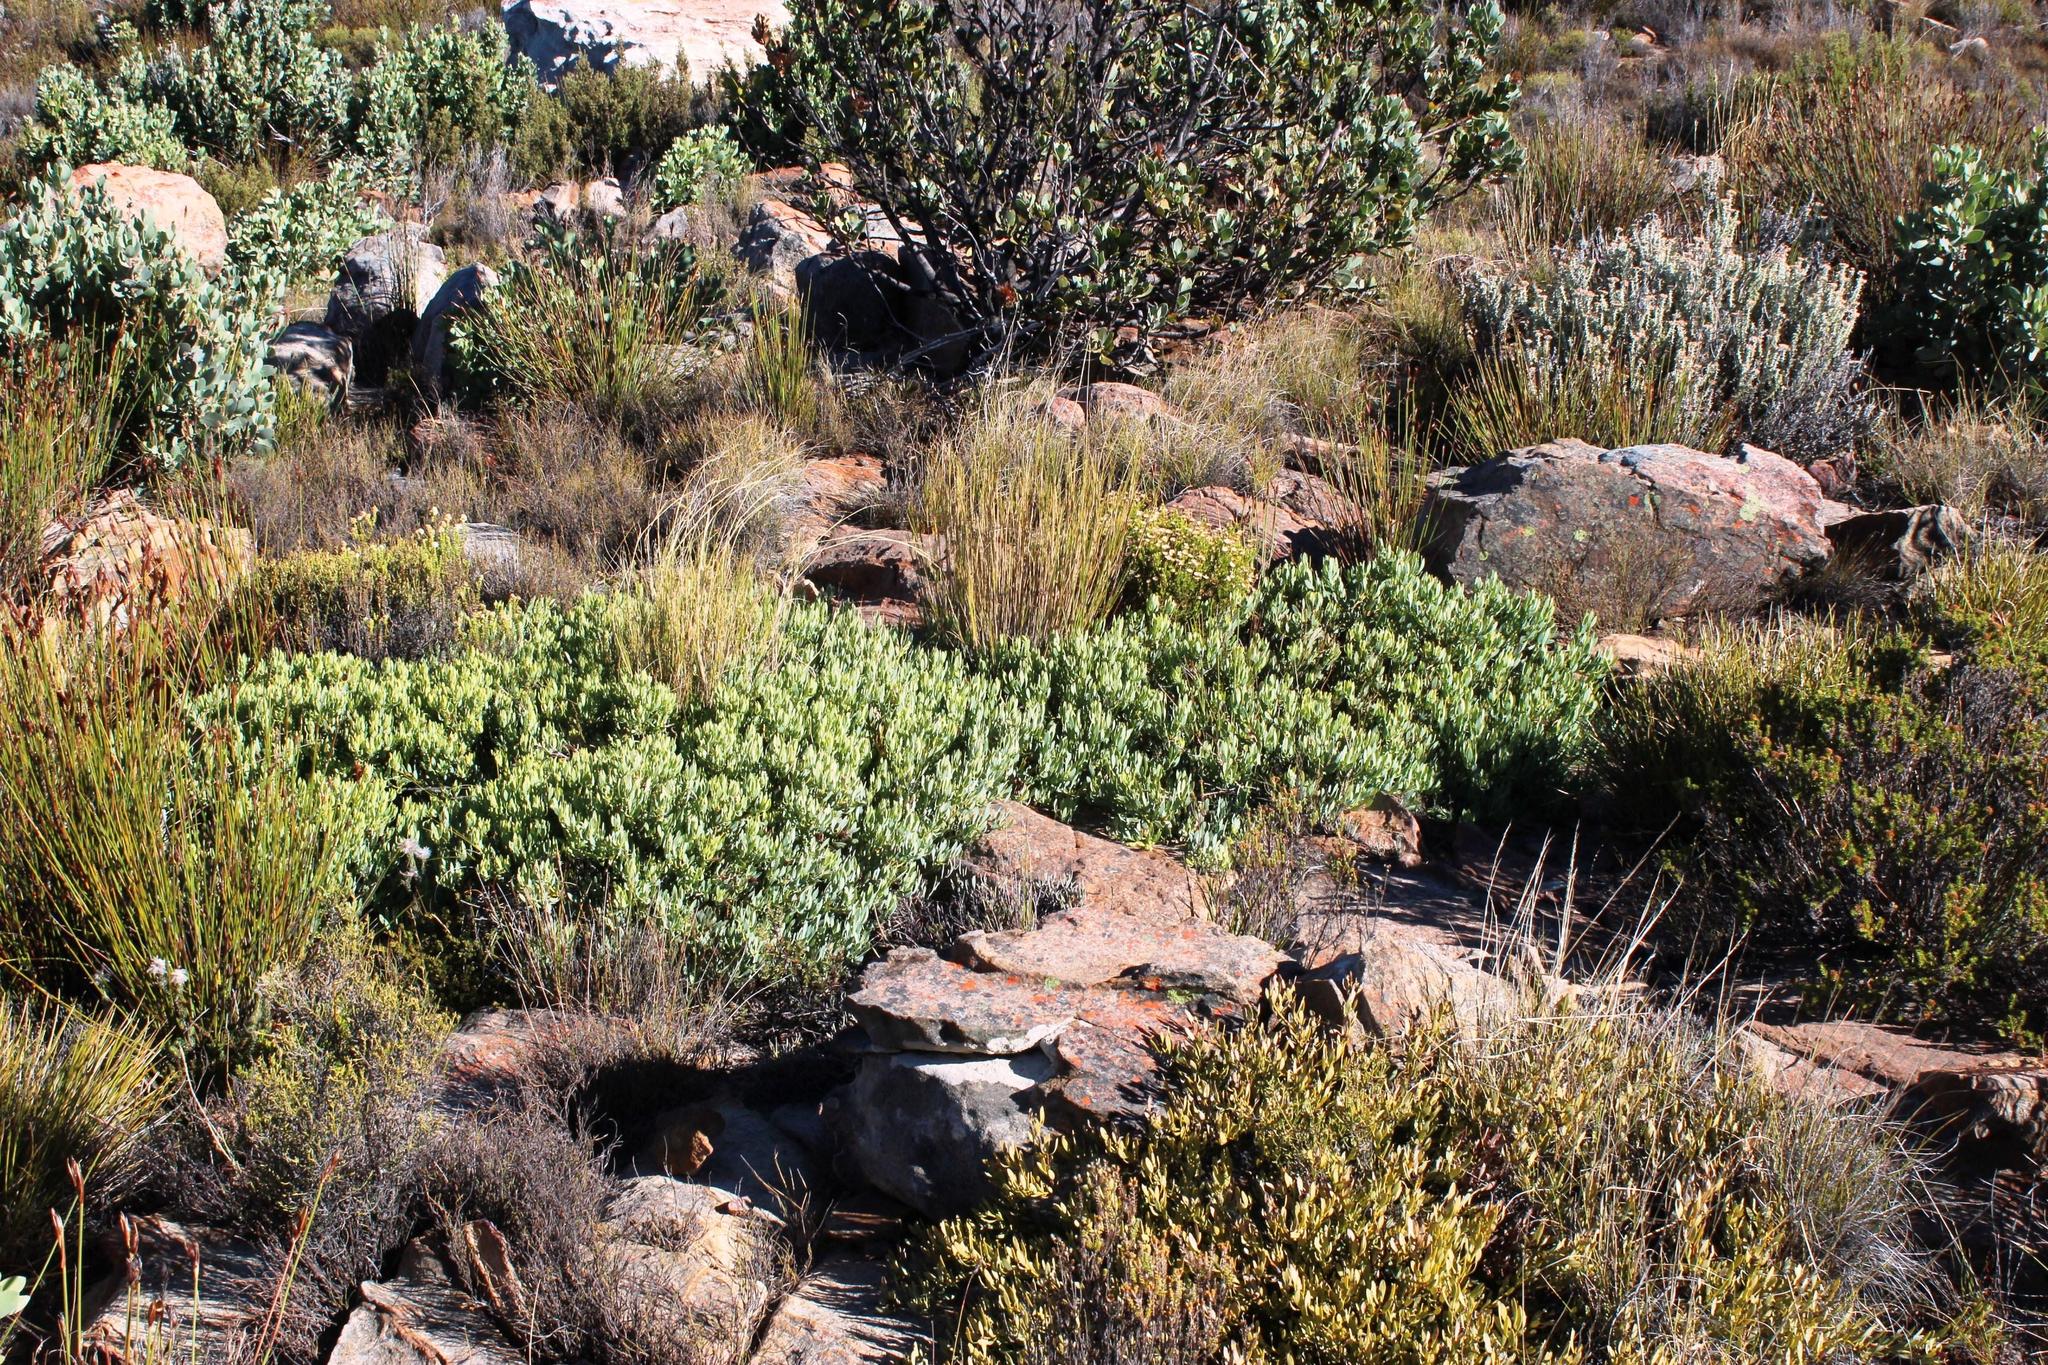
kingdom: Plantae
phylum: Tracheophyta
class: Magnoliopsida
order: Proteales
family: Proteaceae
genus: Leucadendron
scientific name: Leucadendron glaberrimum
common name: Common oily conebush
